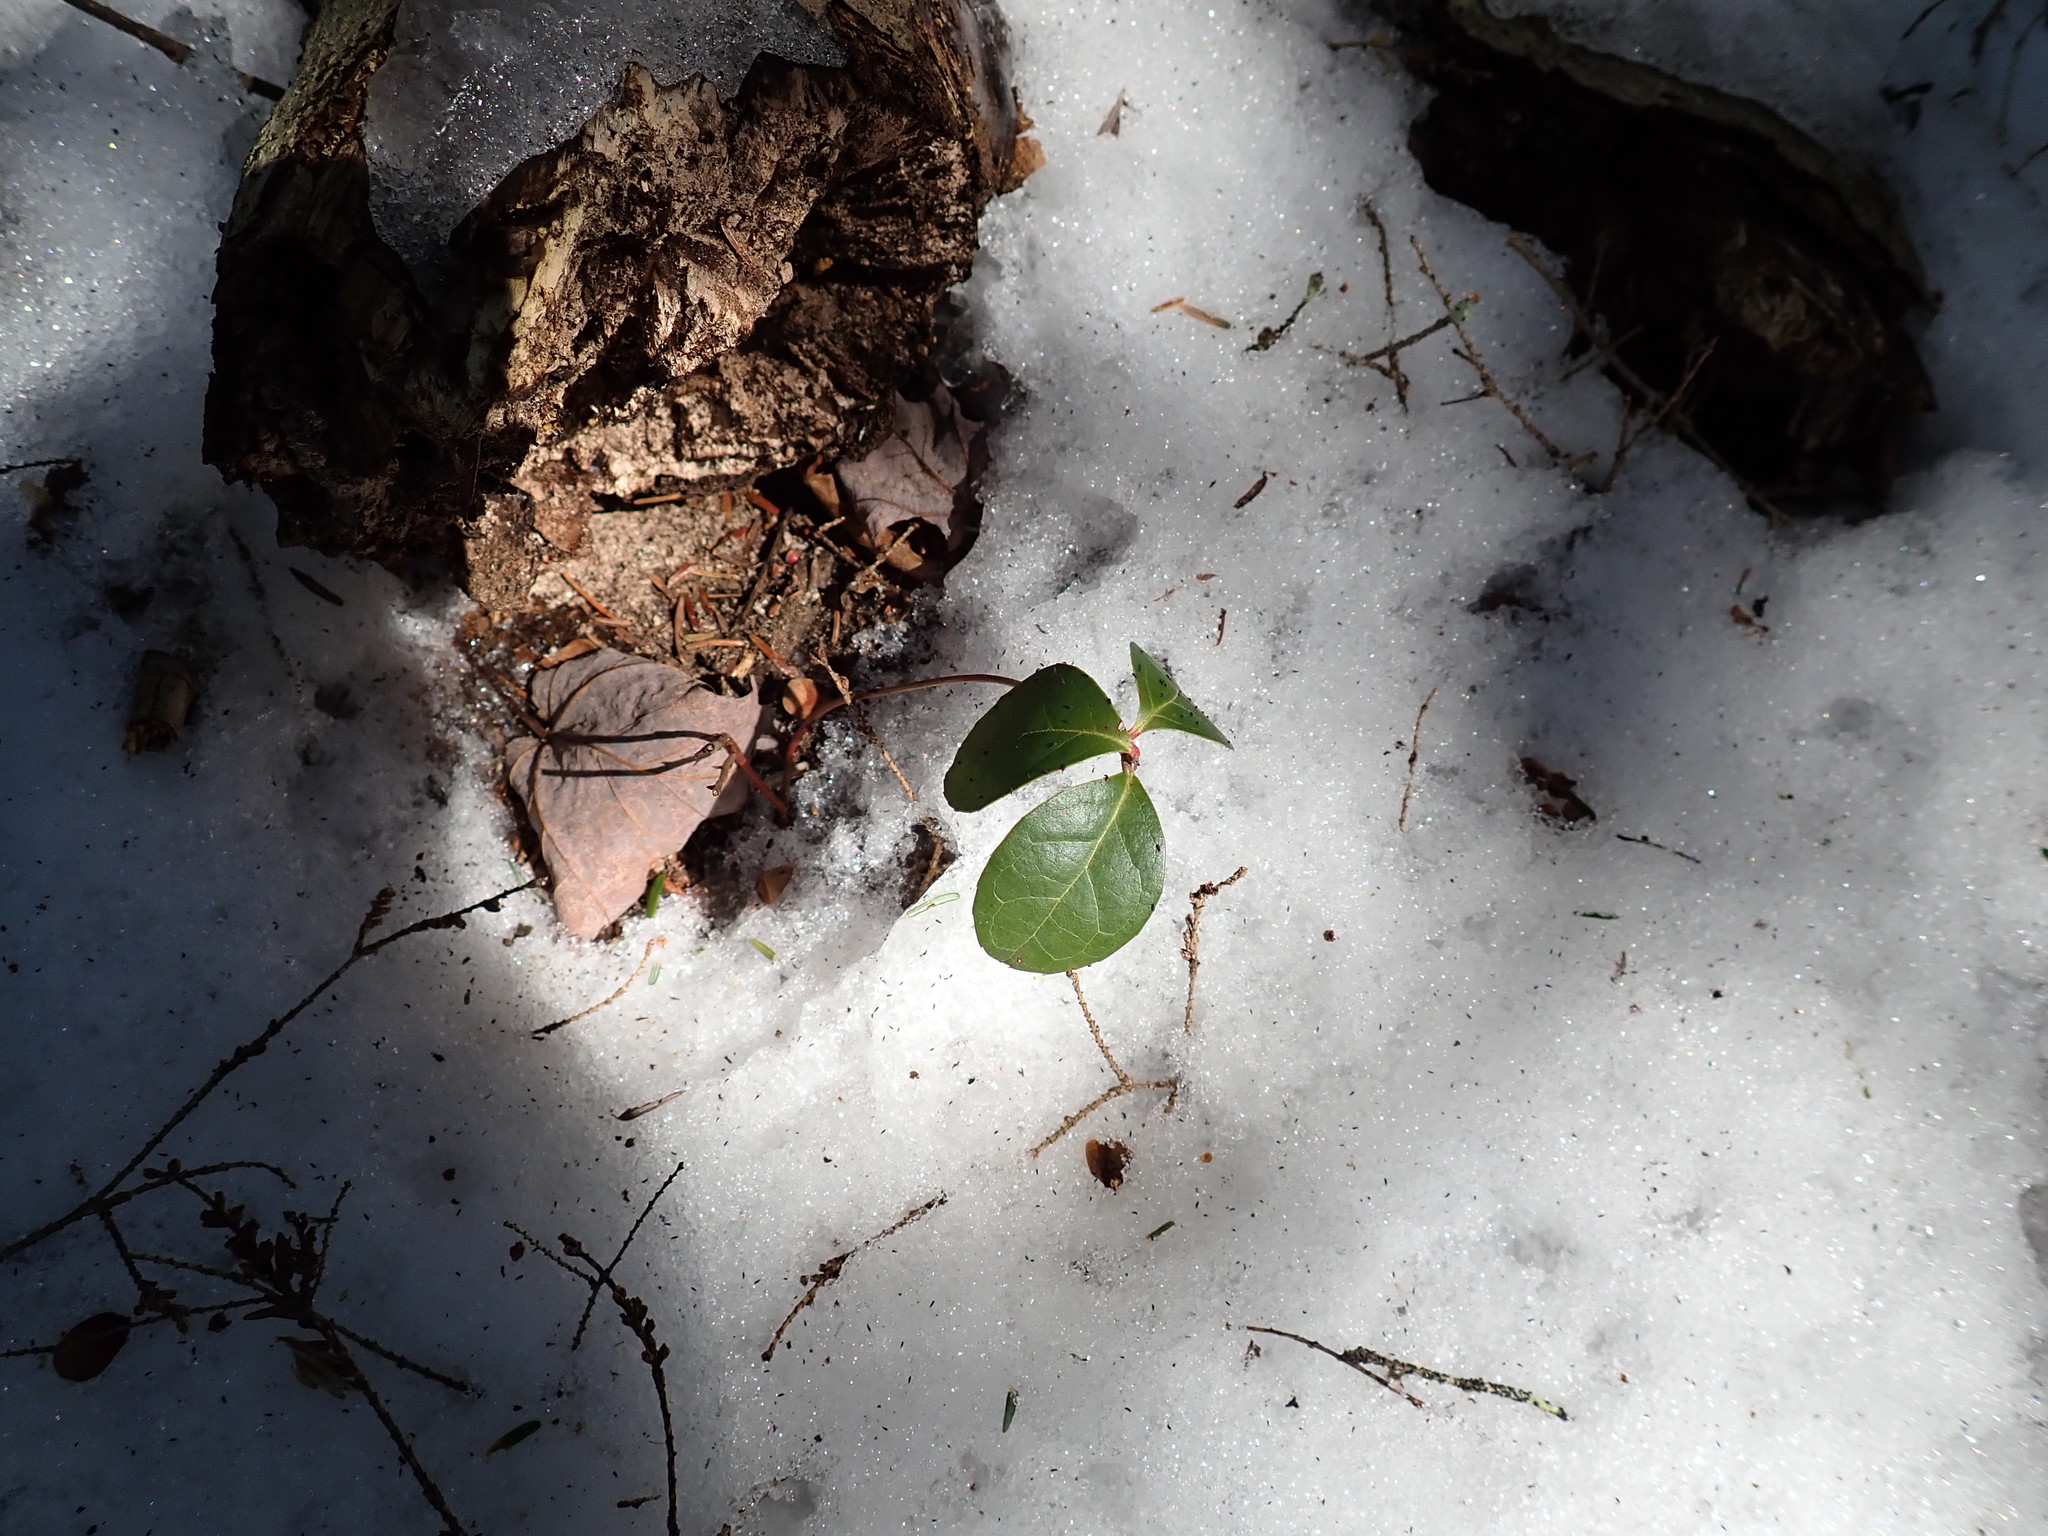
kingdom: Plantae
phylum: Tracheophyta
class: Magnoliopsida
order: Ericales
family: Ericaceae
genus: Gaultheria
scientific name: Gaultheria procumbens
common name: Checkerberry
